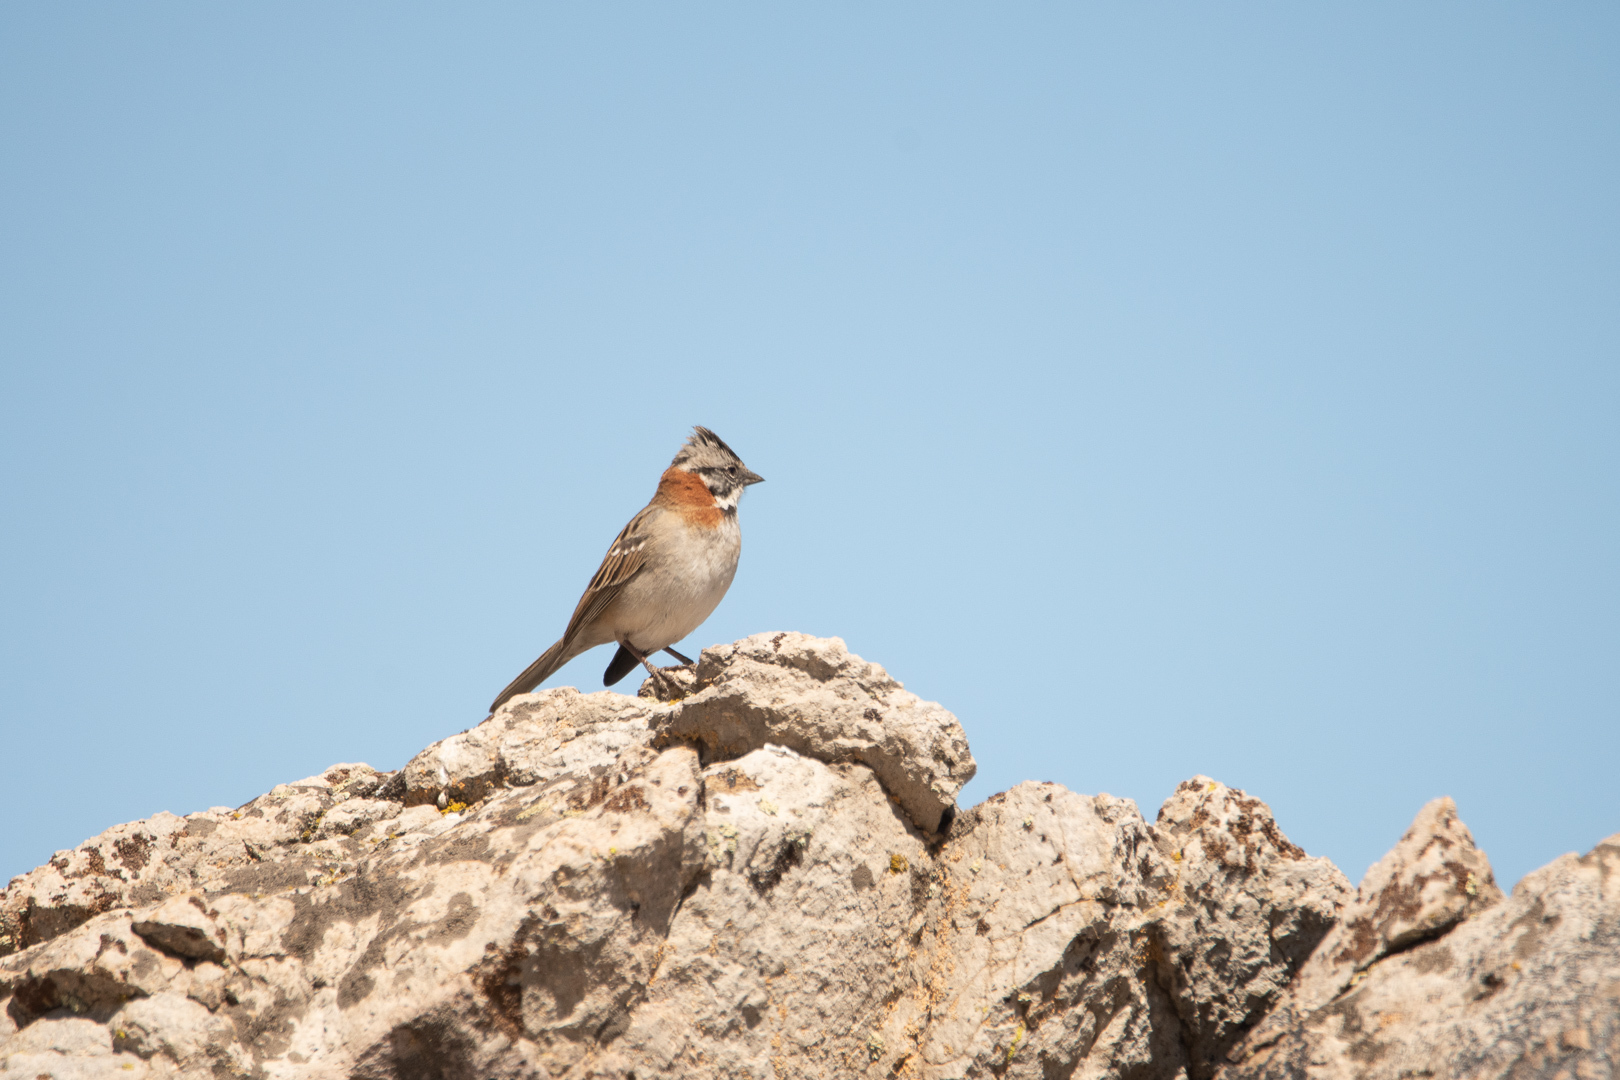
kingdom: Animalia
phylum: Chordata
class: Aves
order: Passeriformes
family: Passerellidae
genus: Zonotrichia
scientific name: Zonotrichia capensis
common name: Rufous-collared sparrow
